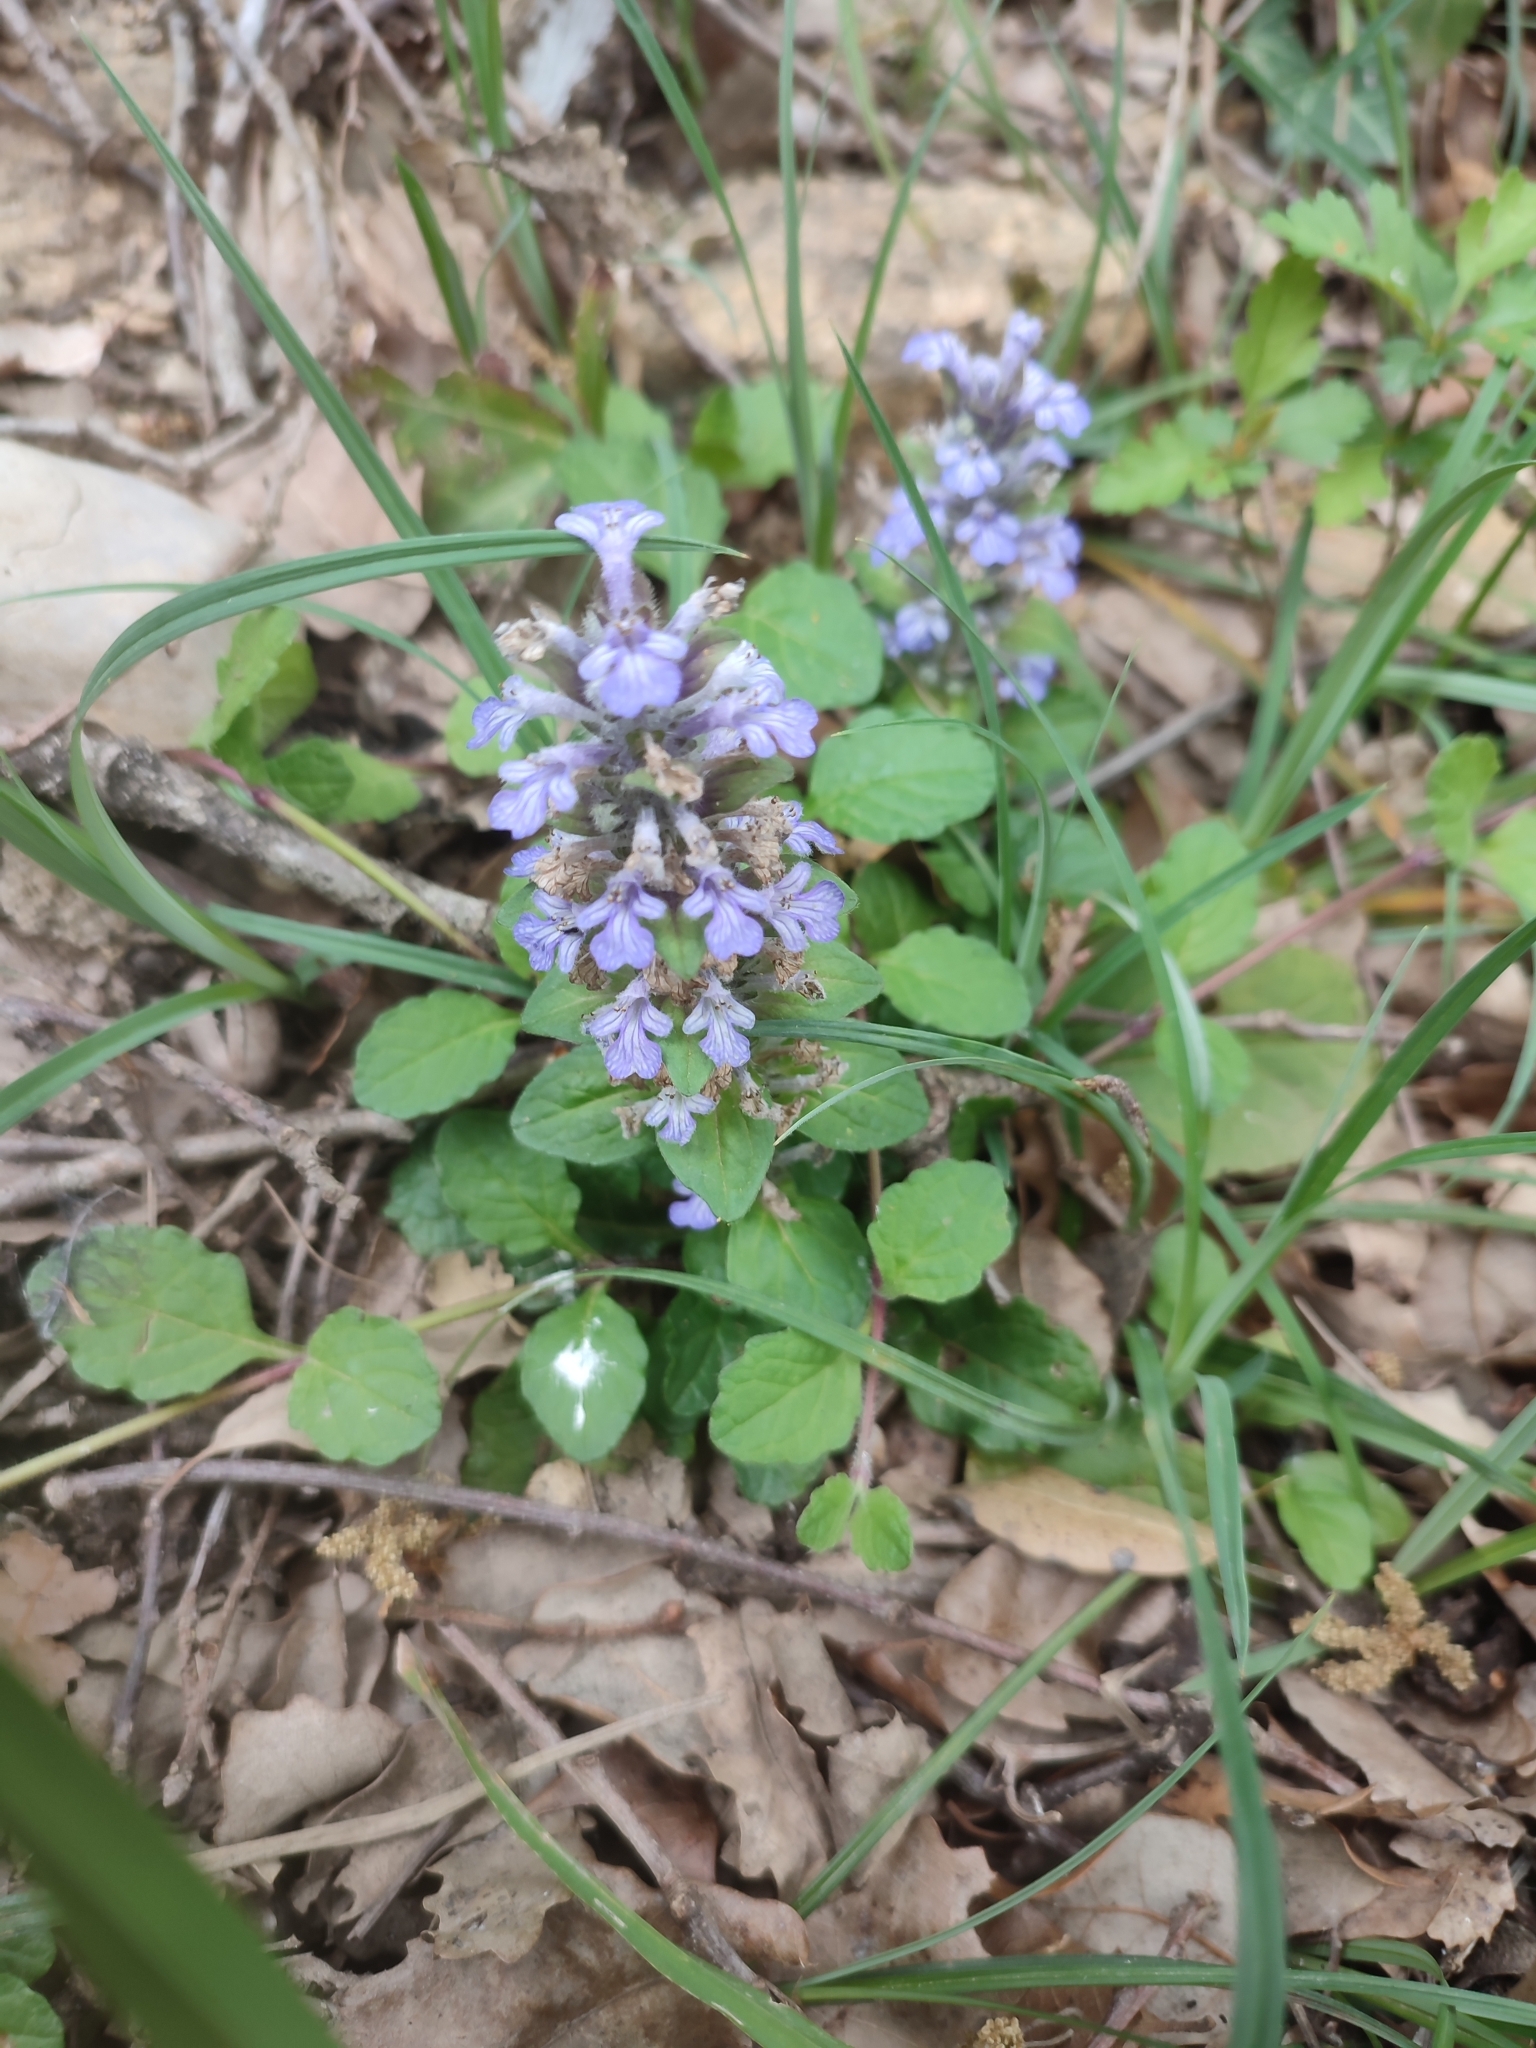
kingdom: Plantae
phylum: Tracheophyta
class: Magnoliopsida
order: Lamiales
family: Lamiaceae
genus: Ajuga
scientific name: Ajuga reptans
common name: Bugle
